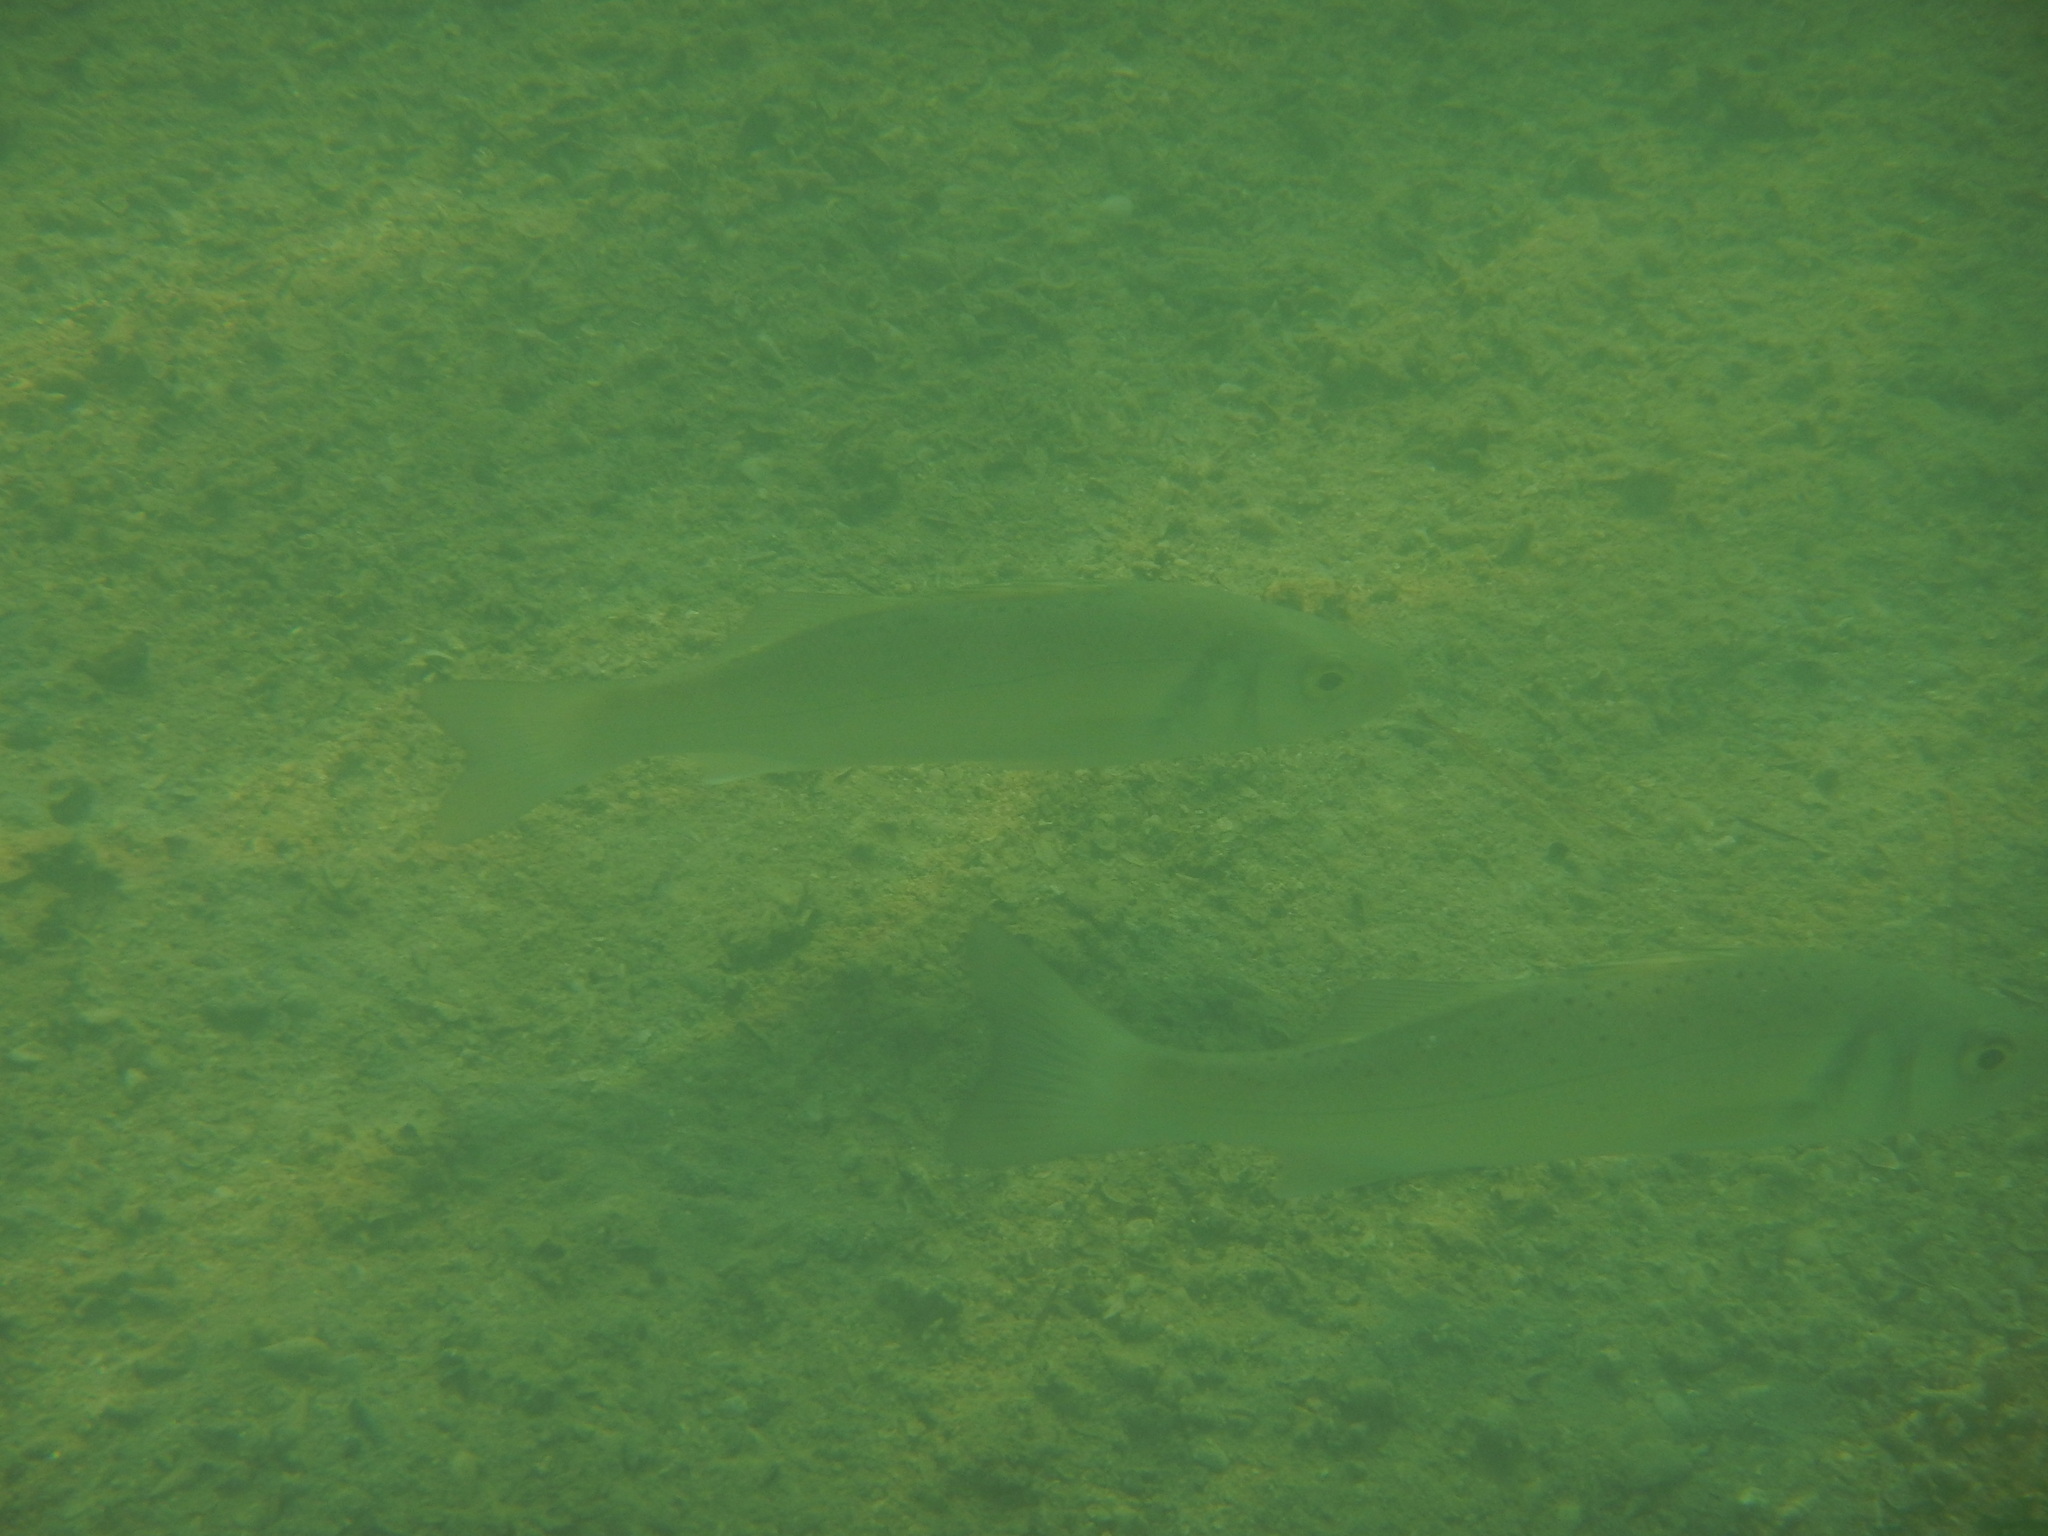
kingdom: Animalia
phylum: Chordata
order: Perciformes
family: Moronidae
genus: Dicentrarchus
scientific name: Dicentrarchus labrax
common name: European seabass
